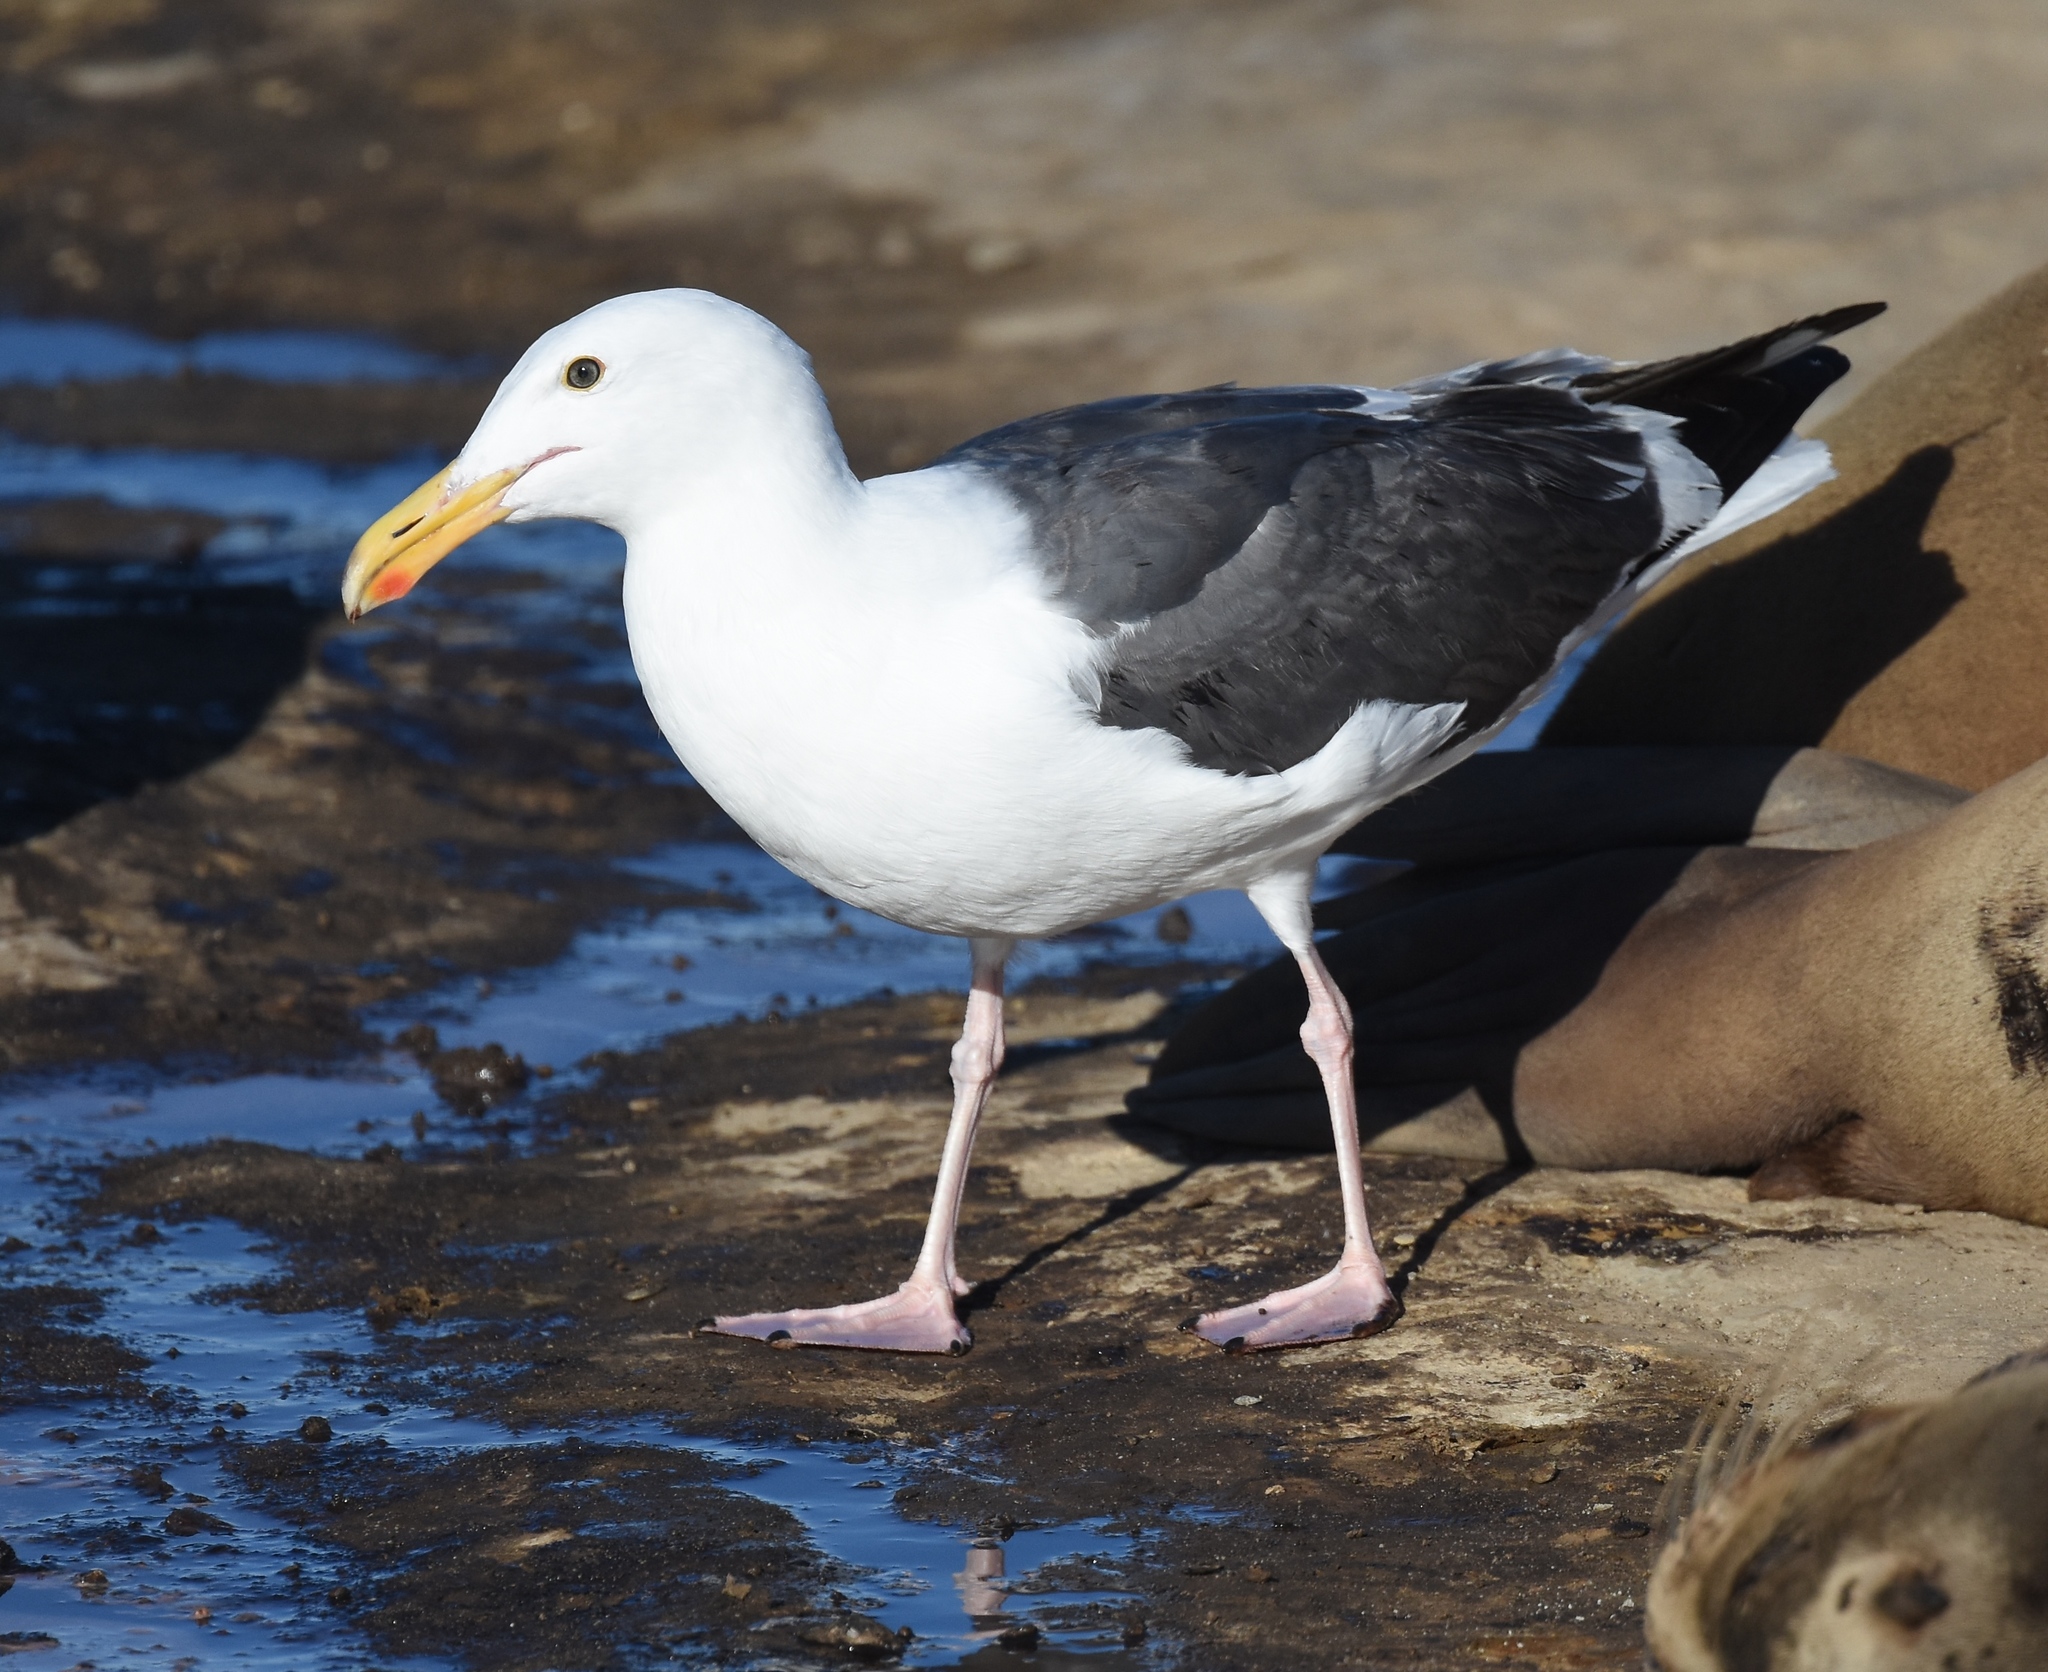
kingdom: Animalia
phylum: Chordata
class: Aves
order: Charadriiformes
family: Laridae
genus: Larus
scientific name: Larus occidentalis
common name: Western gull
